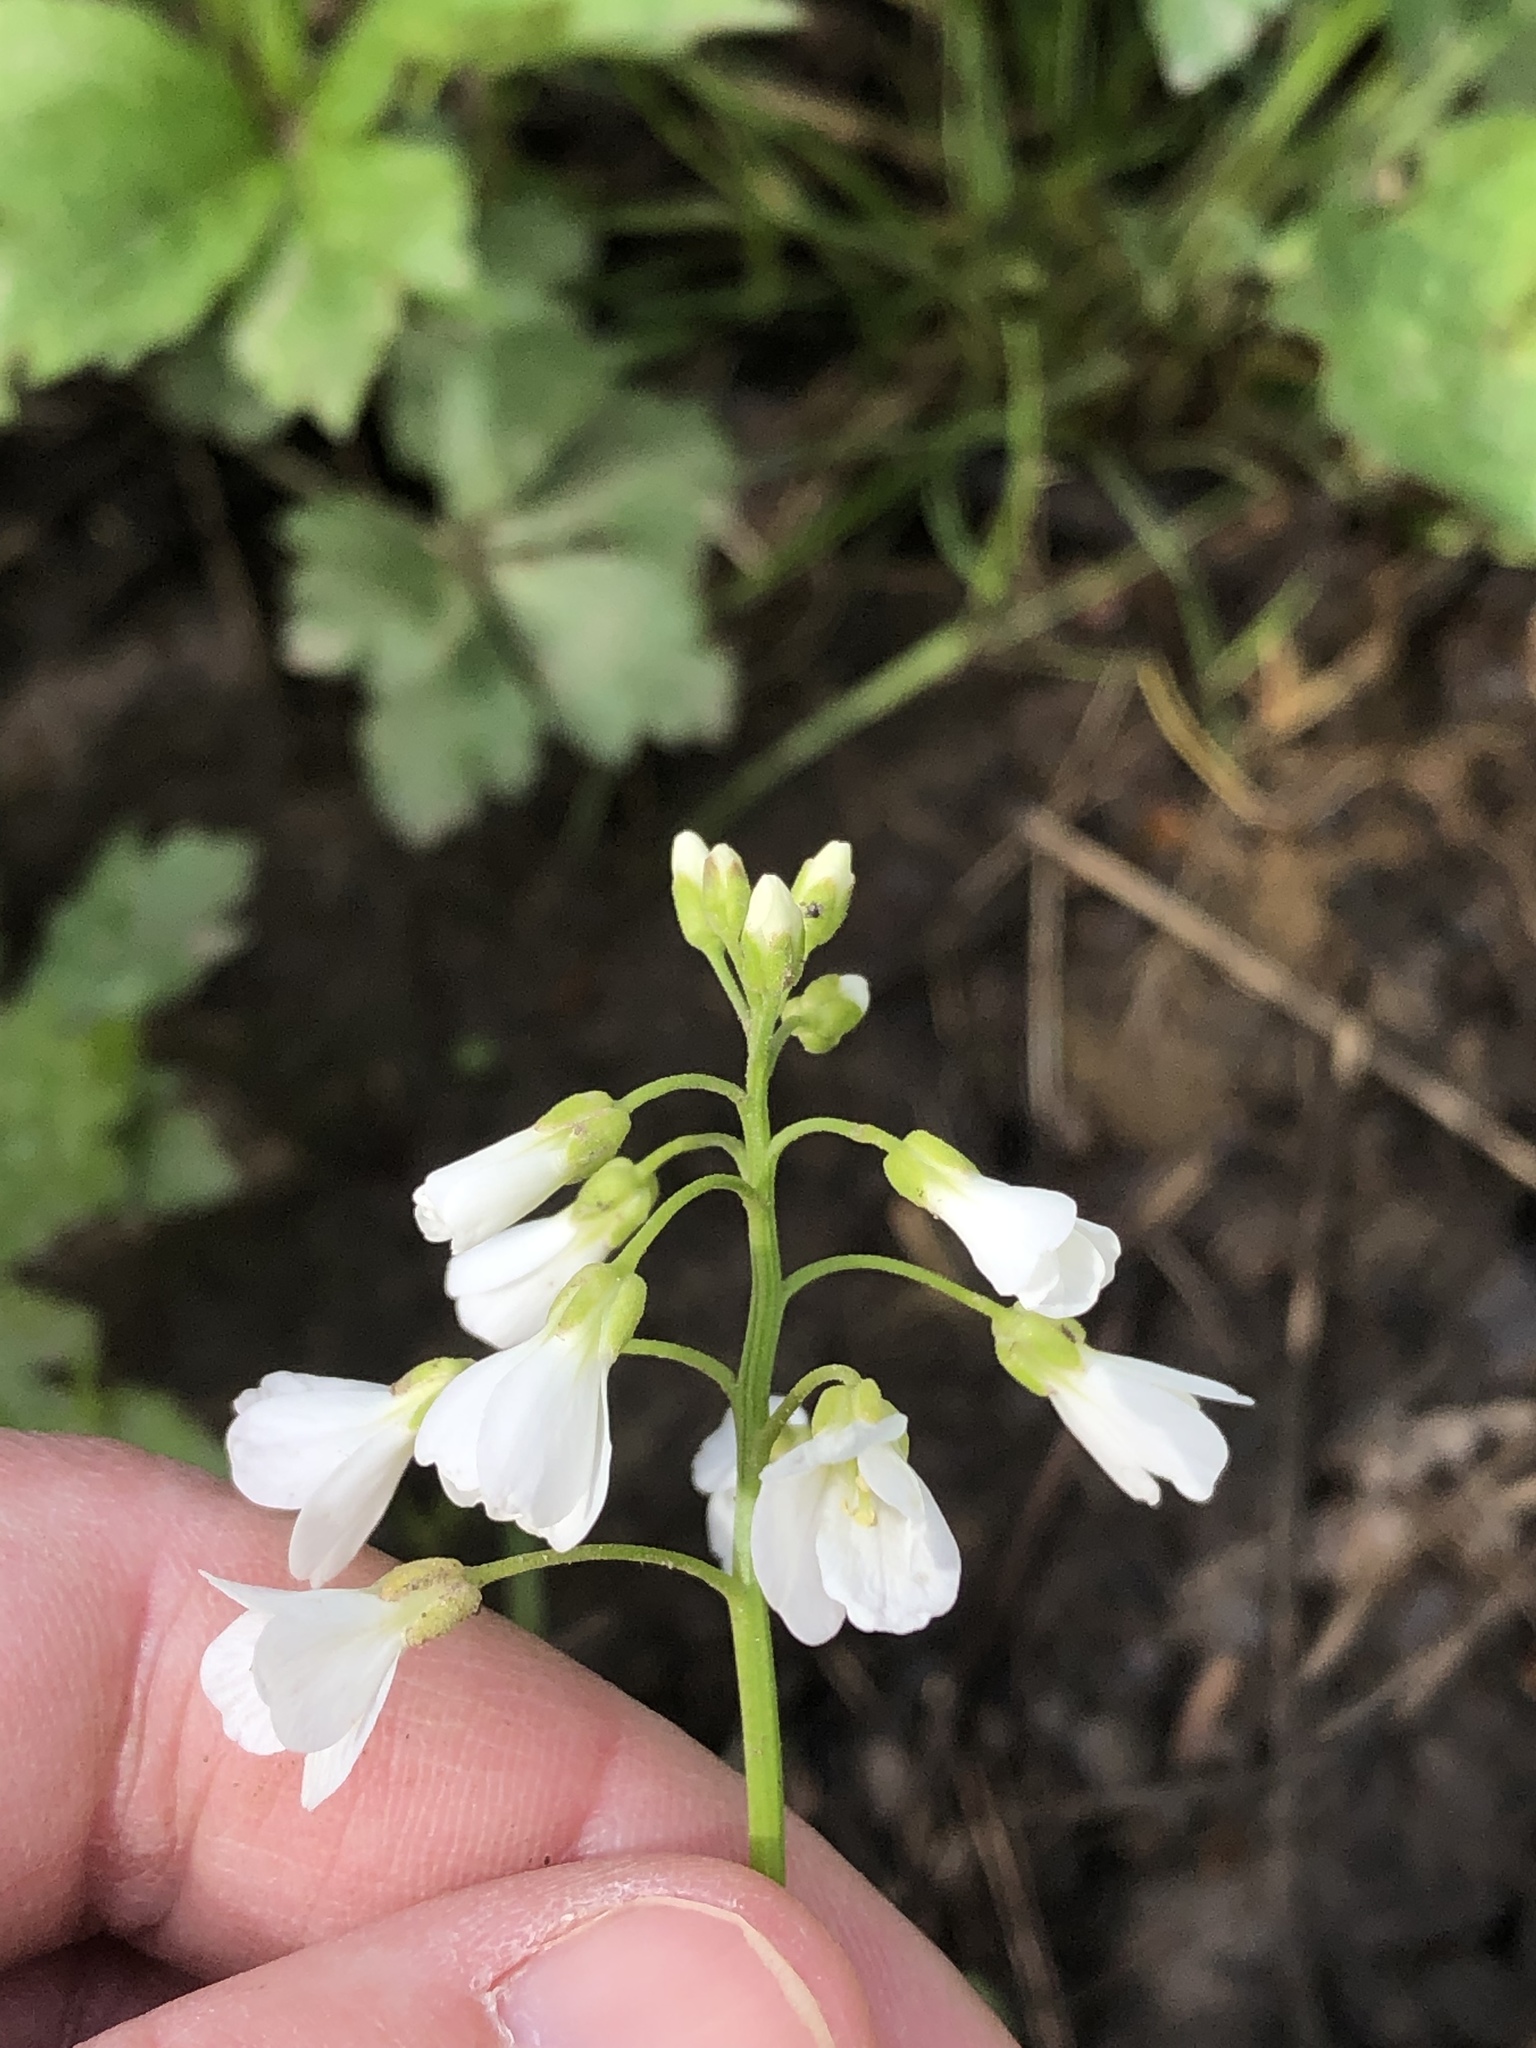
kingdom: Plantae
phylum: Tracheophyta
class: Magnoliopsida
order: Brassicales
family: Brassicaceae
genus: Cardamine
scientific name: Cardamine bulbosa
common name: Spring cress
